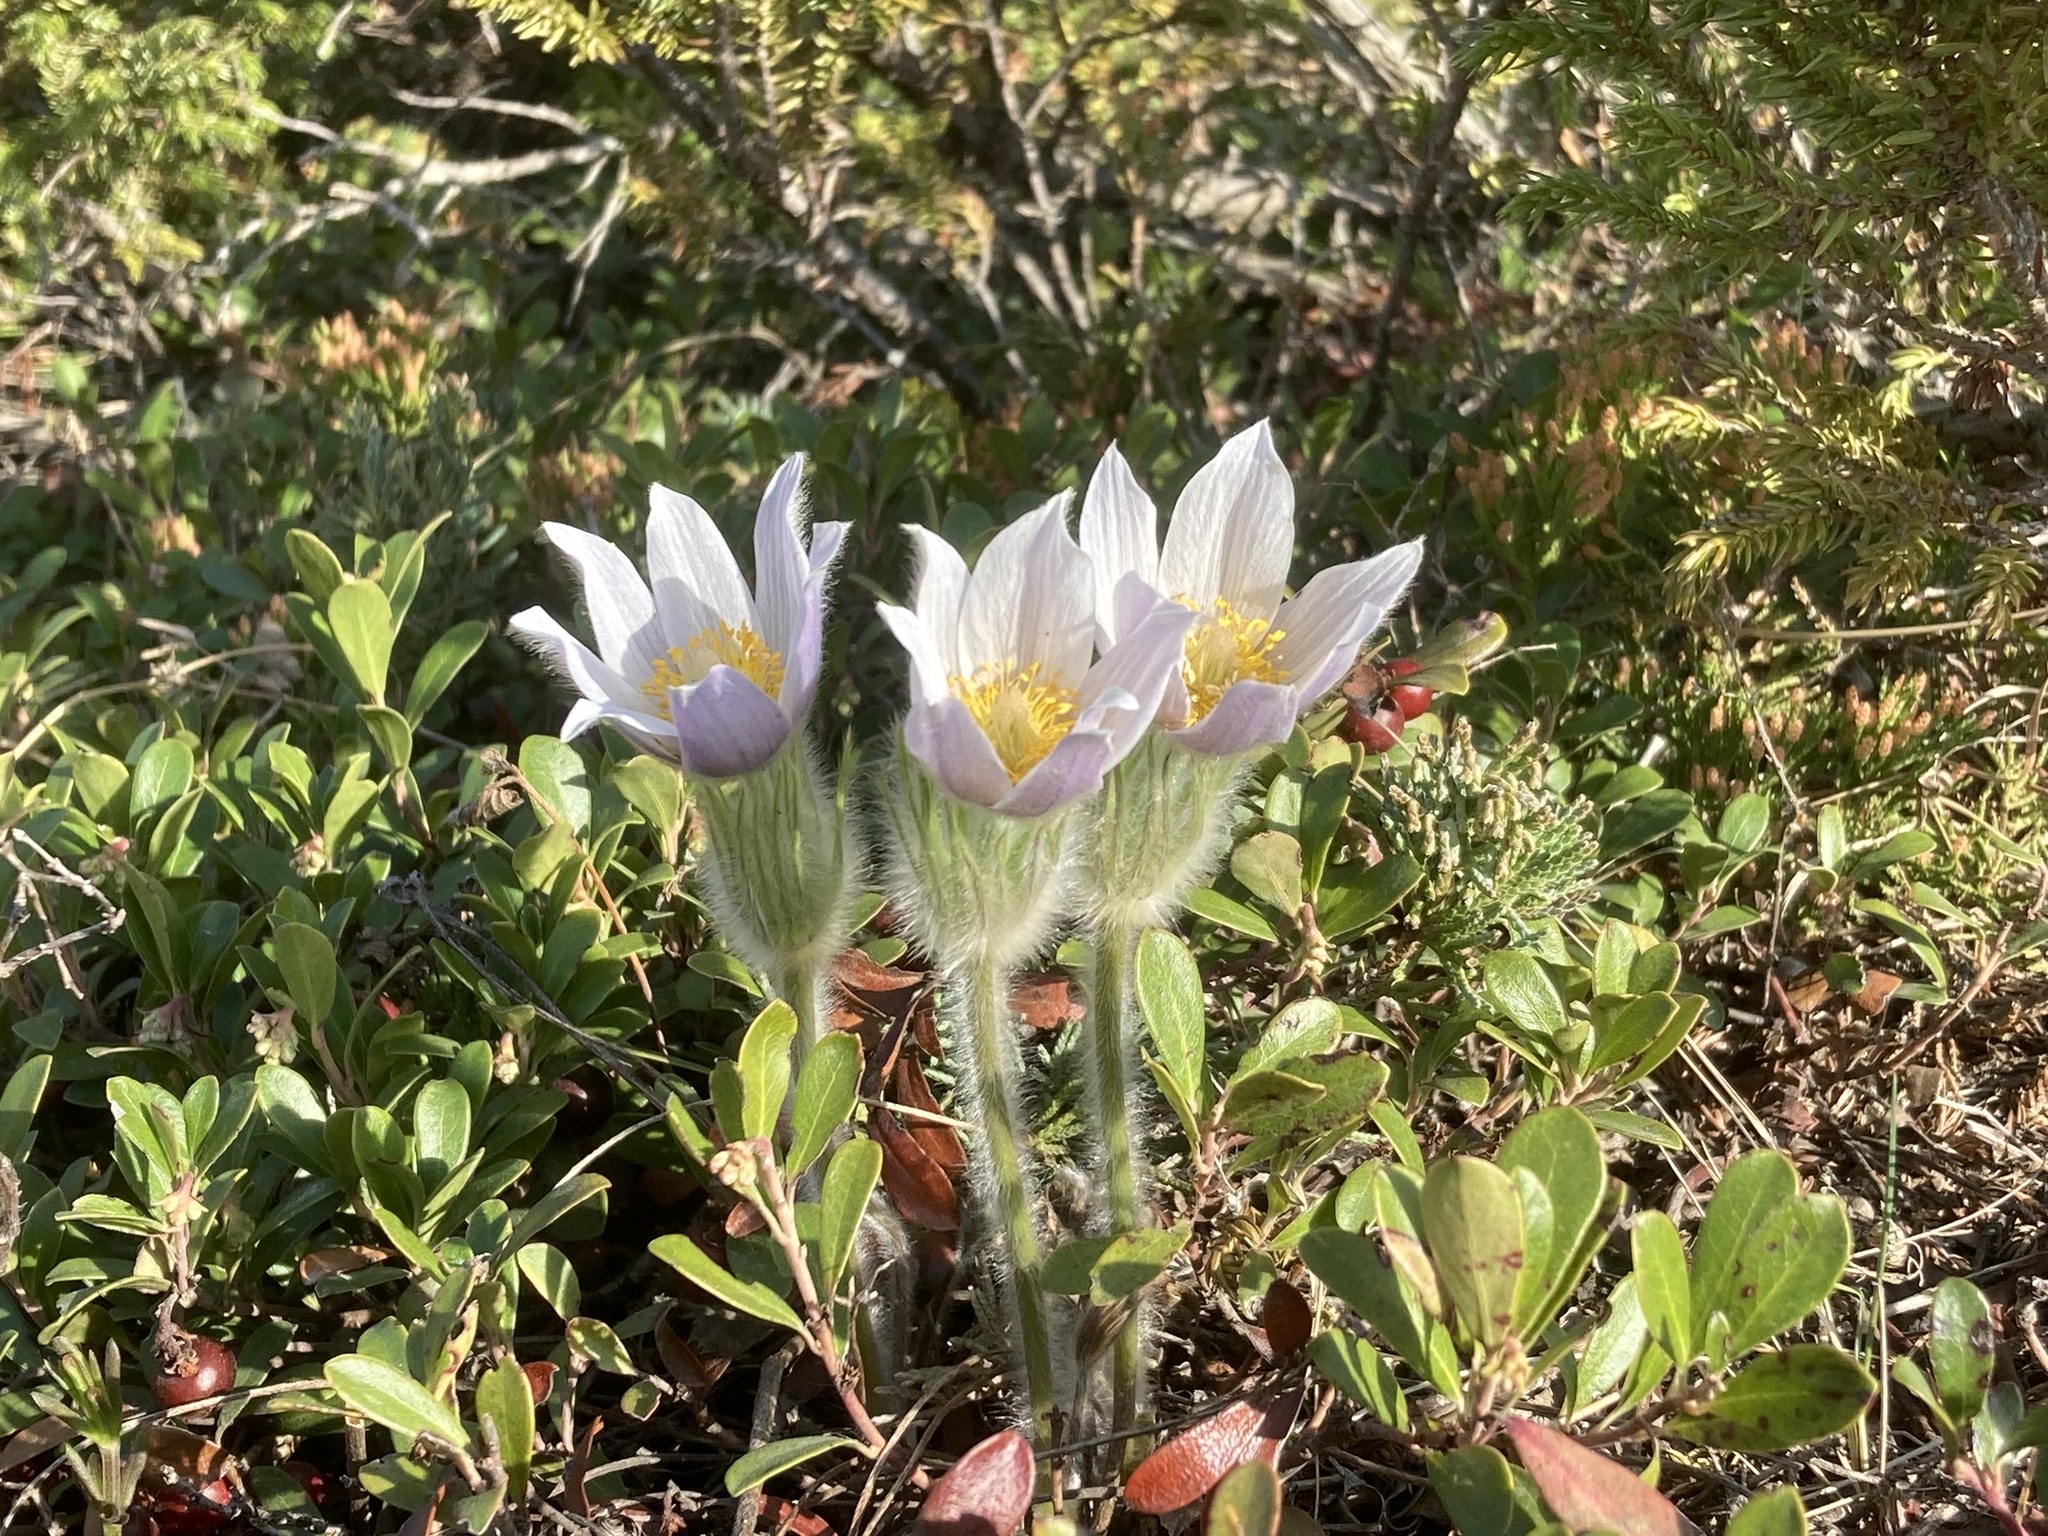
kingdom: Plantae
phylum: Tracheophyta
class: Magnoliopsida
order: Ranunculales
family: Ranunculaceae
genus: Pulsatilla
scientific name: Pulsatilla nuttalliana
